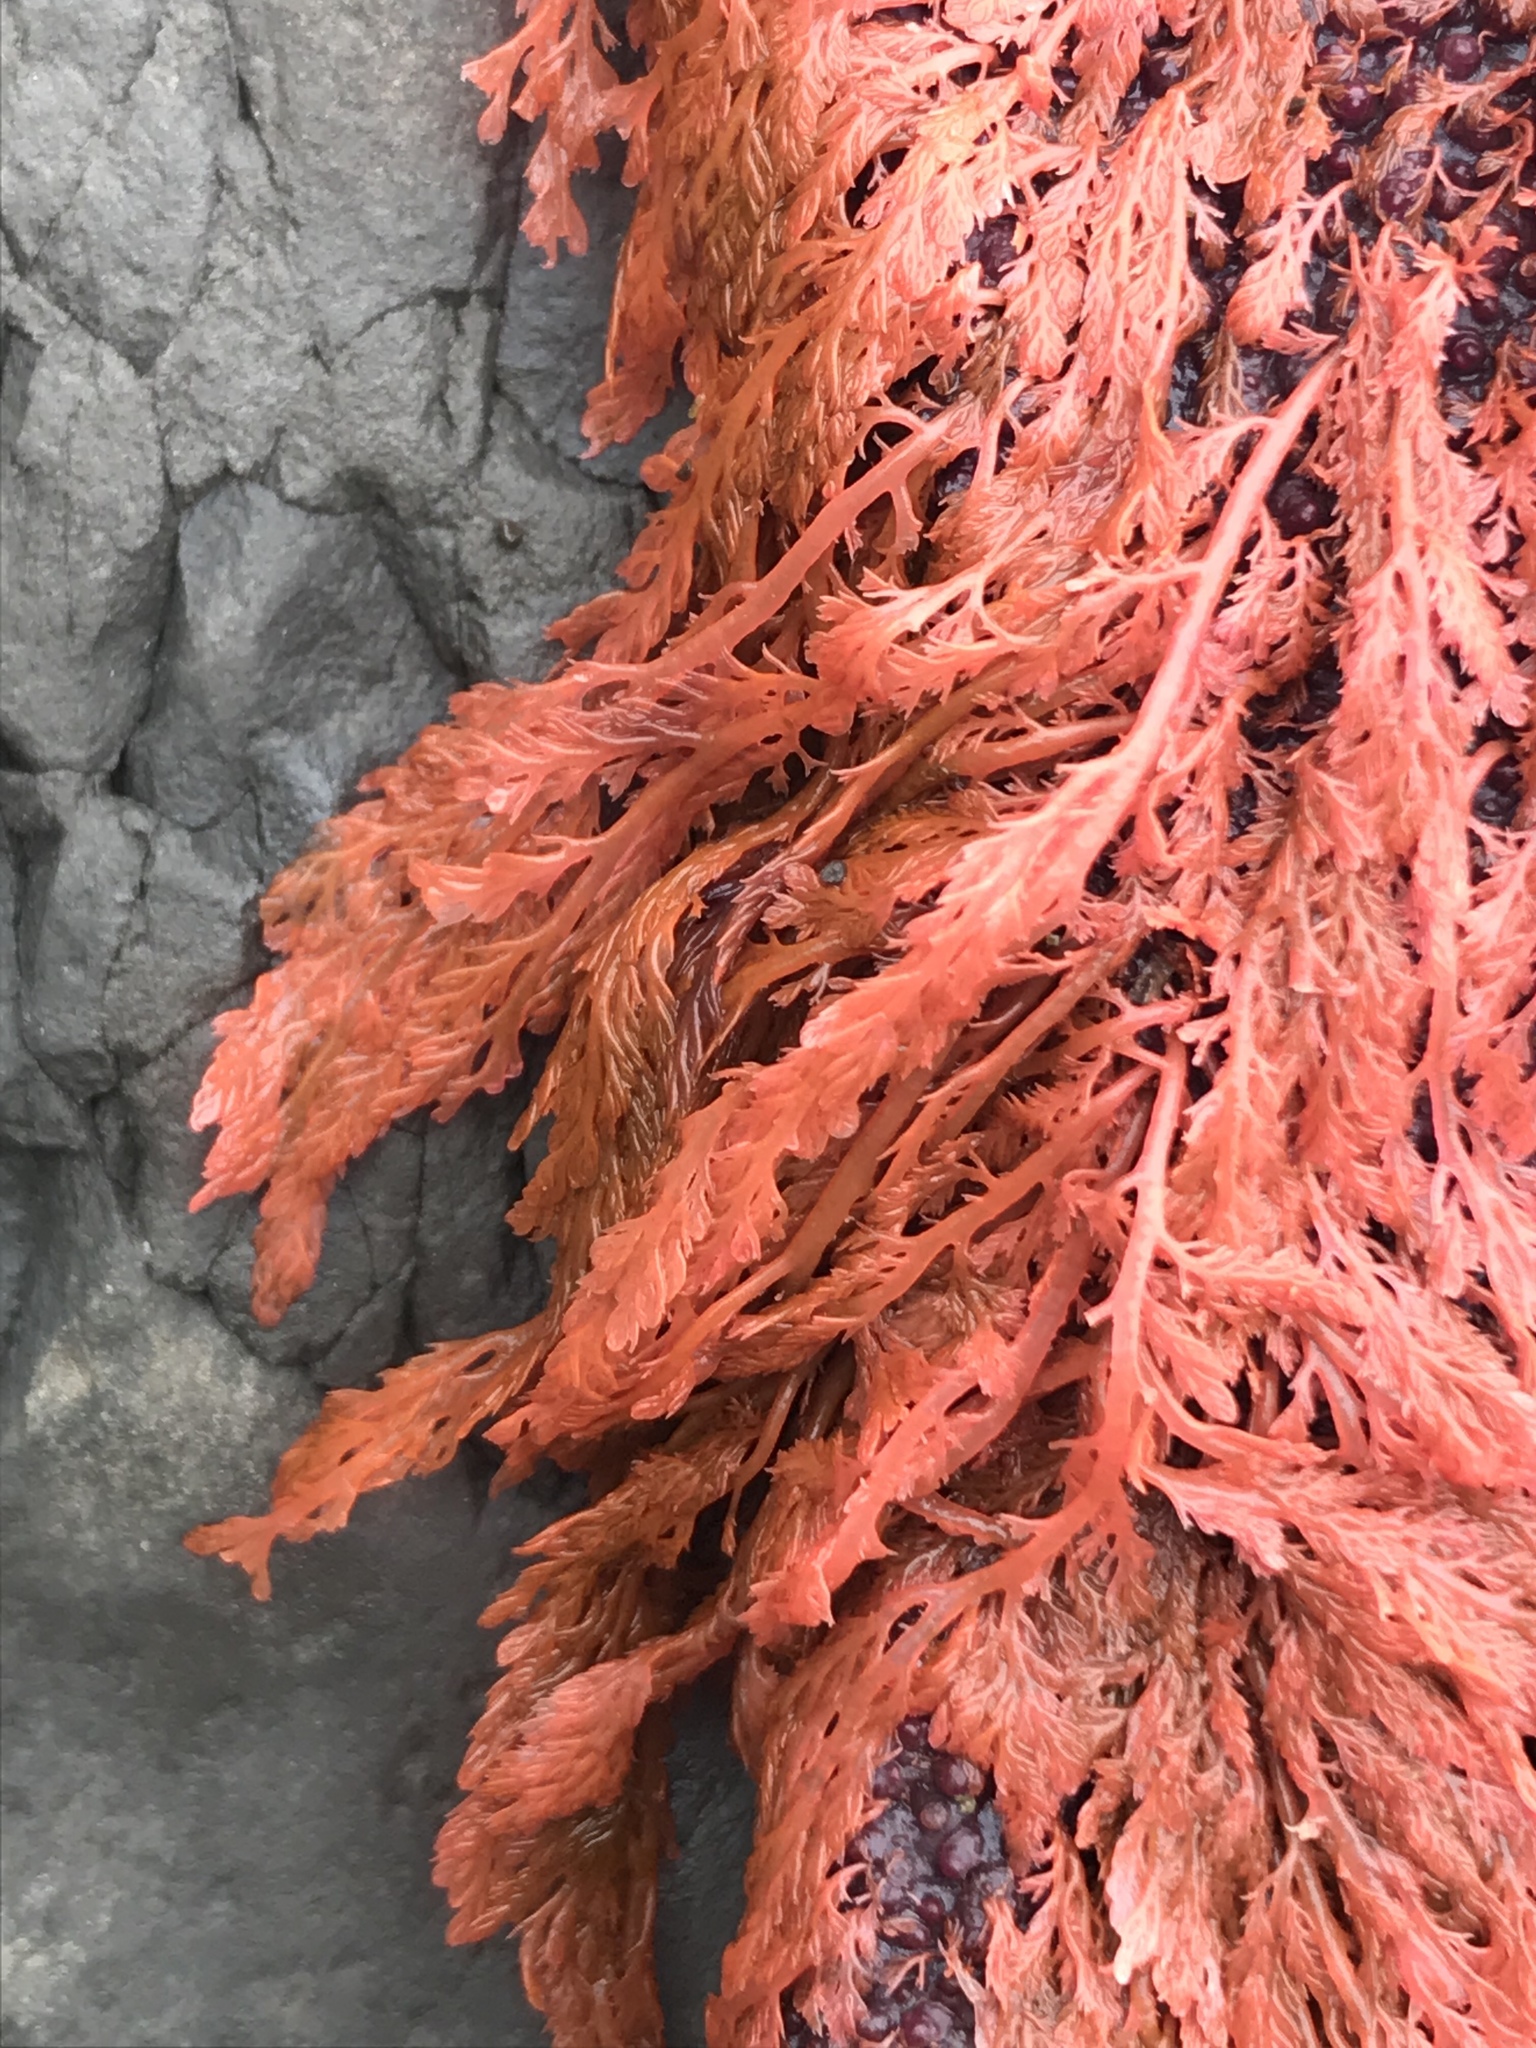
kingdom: Plantae
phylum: Rhodophyta
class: Florideophyceae
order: Ceramiales
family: Ceramiaceae
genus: Microcladia
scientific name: Microcladia coulteri
